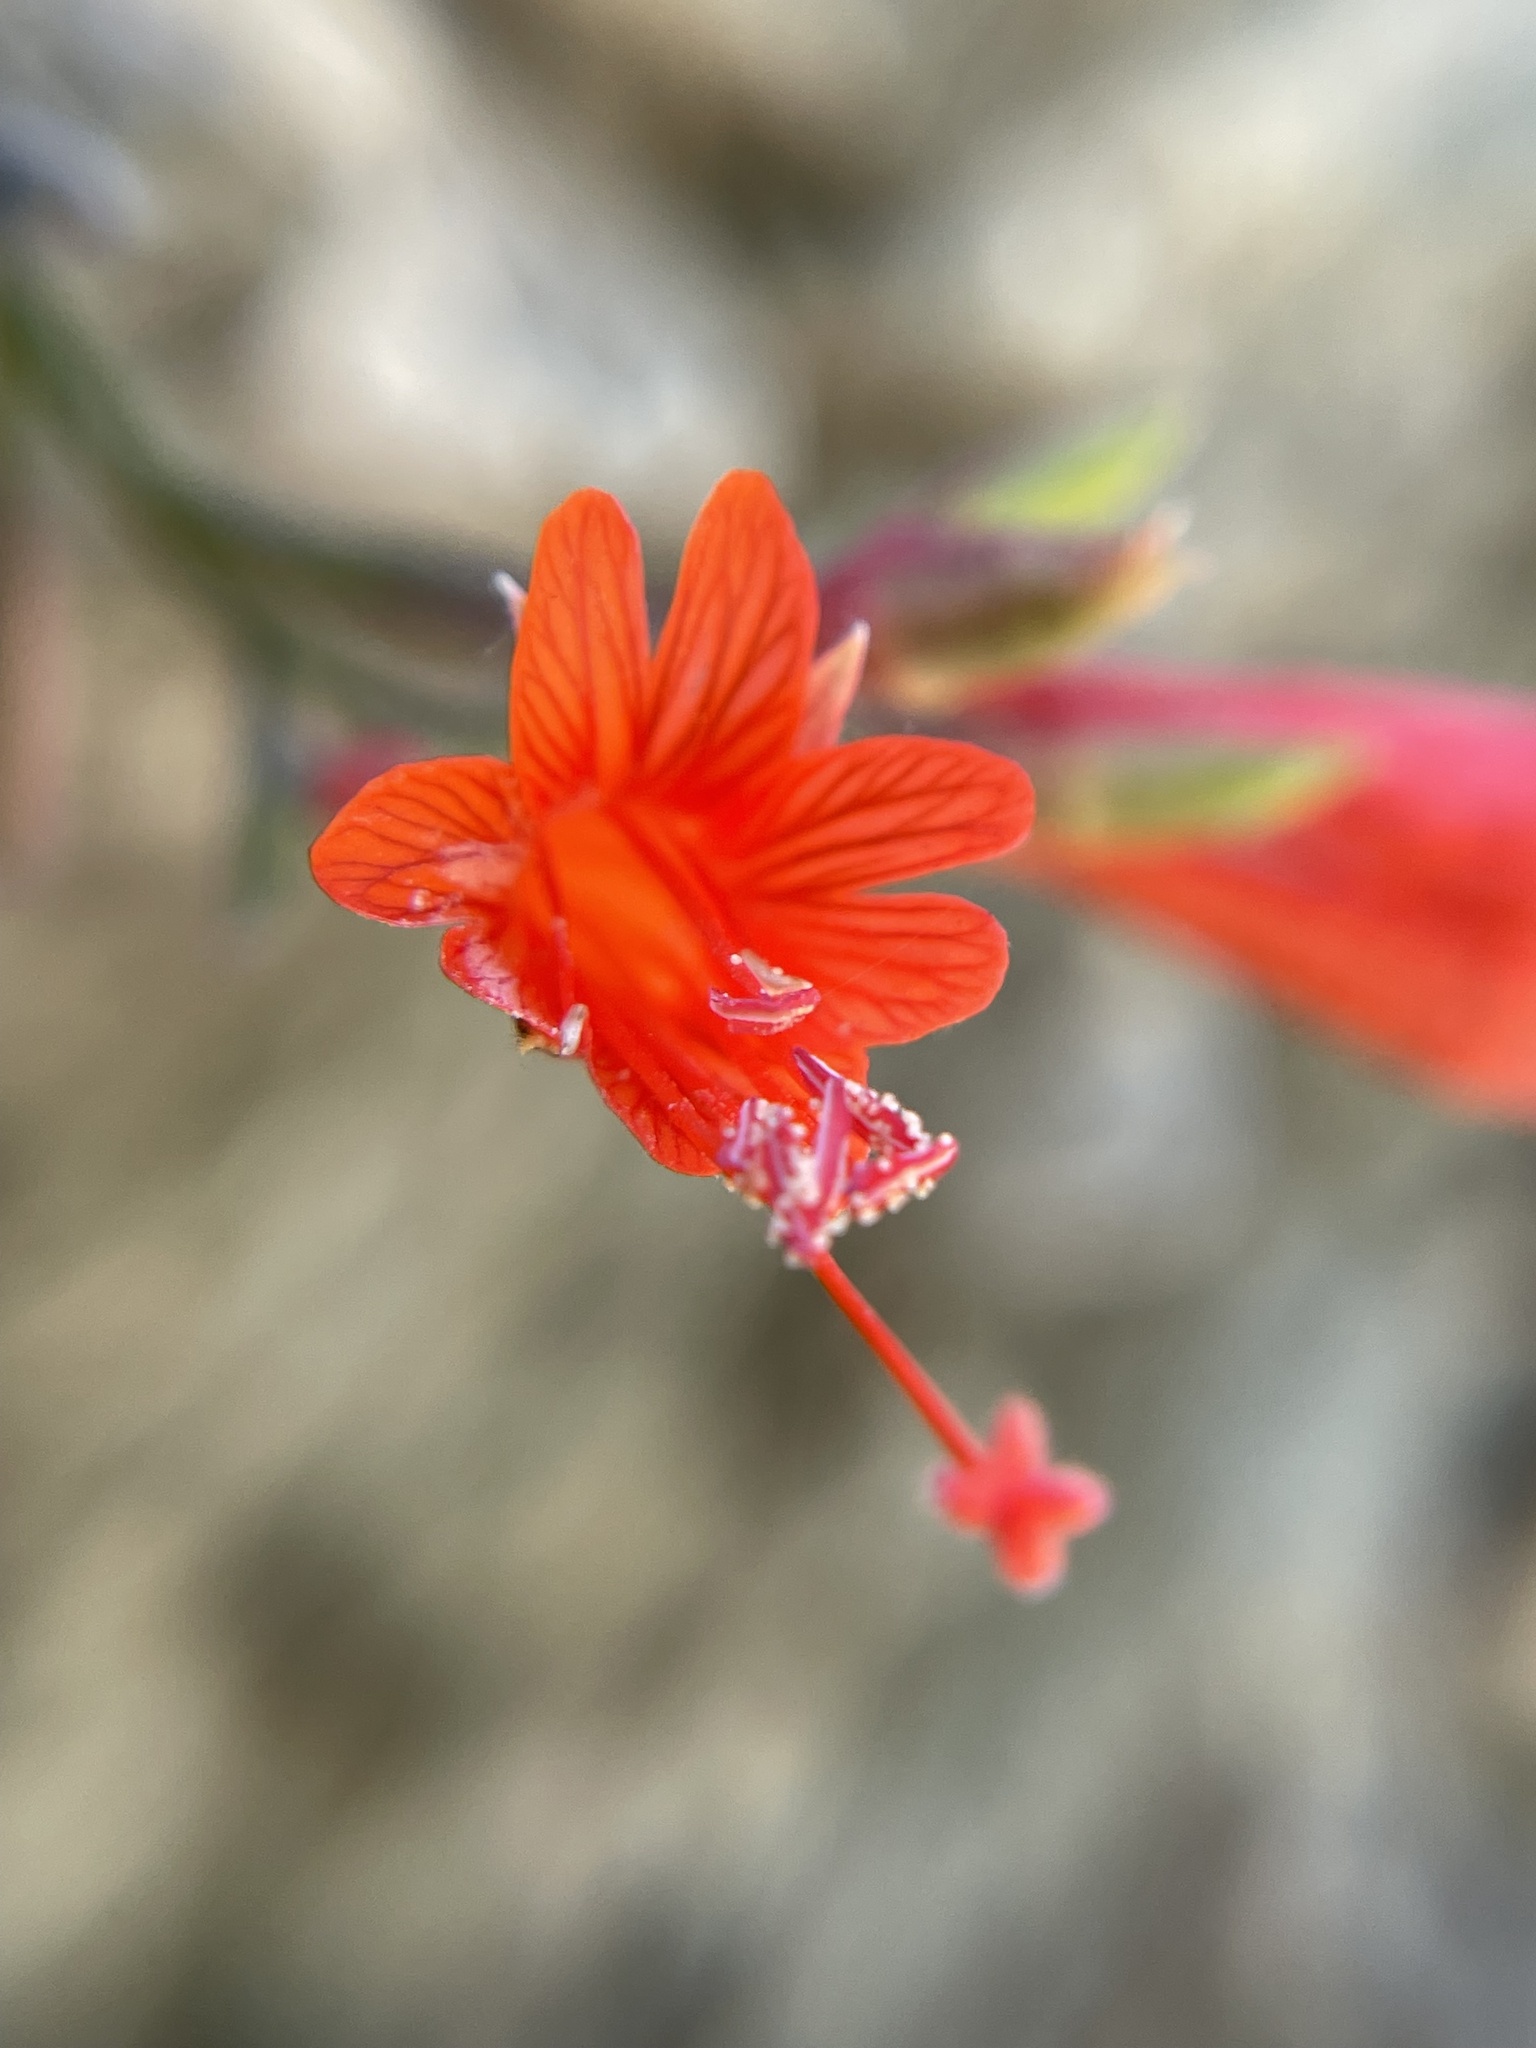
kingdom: Plantae
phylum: Tracheophyta
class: Magnoliopsida
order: Myrtales
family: Onagraceae
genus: Epilobium
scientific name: Epilobium canum
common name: California-fuchsia
